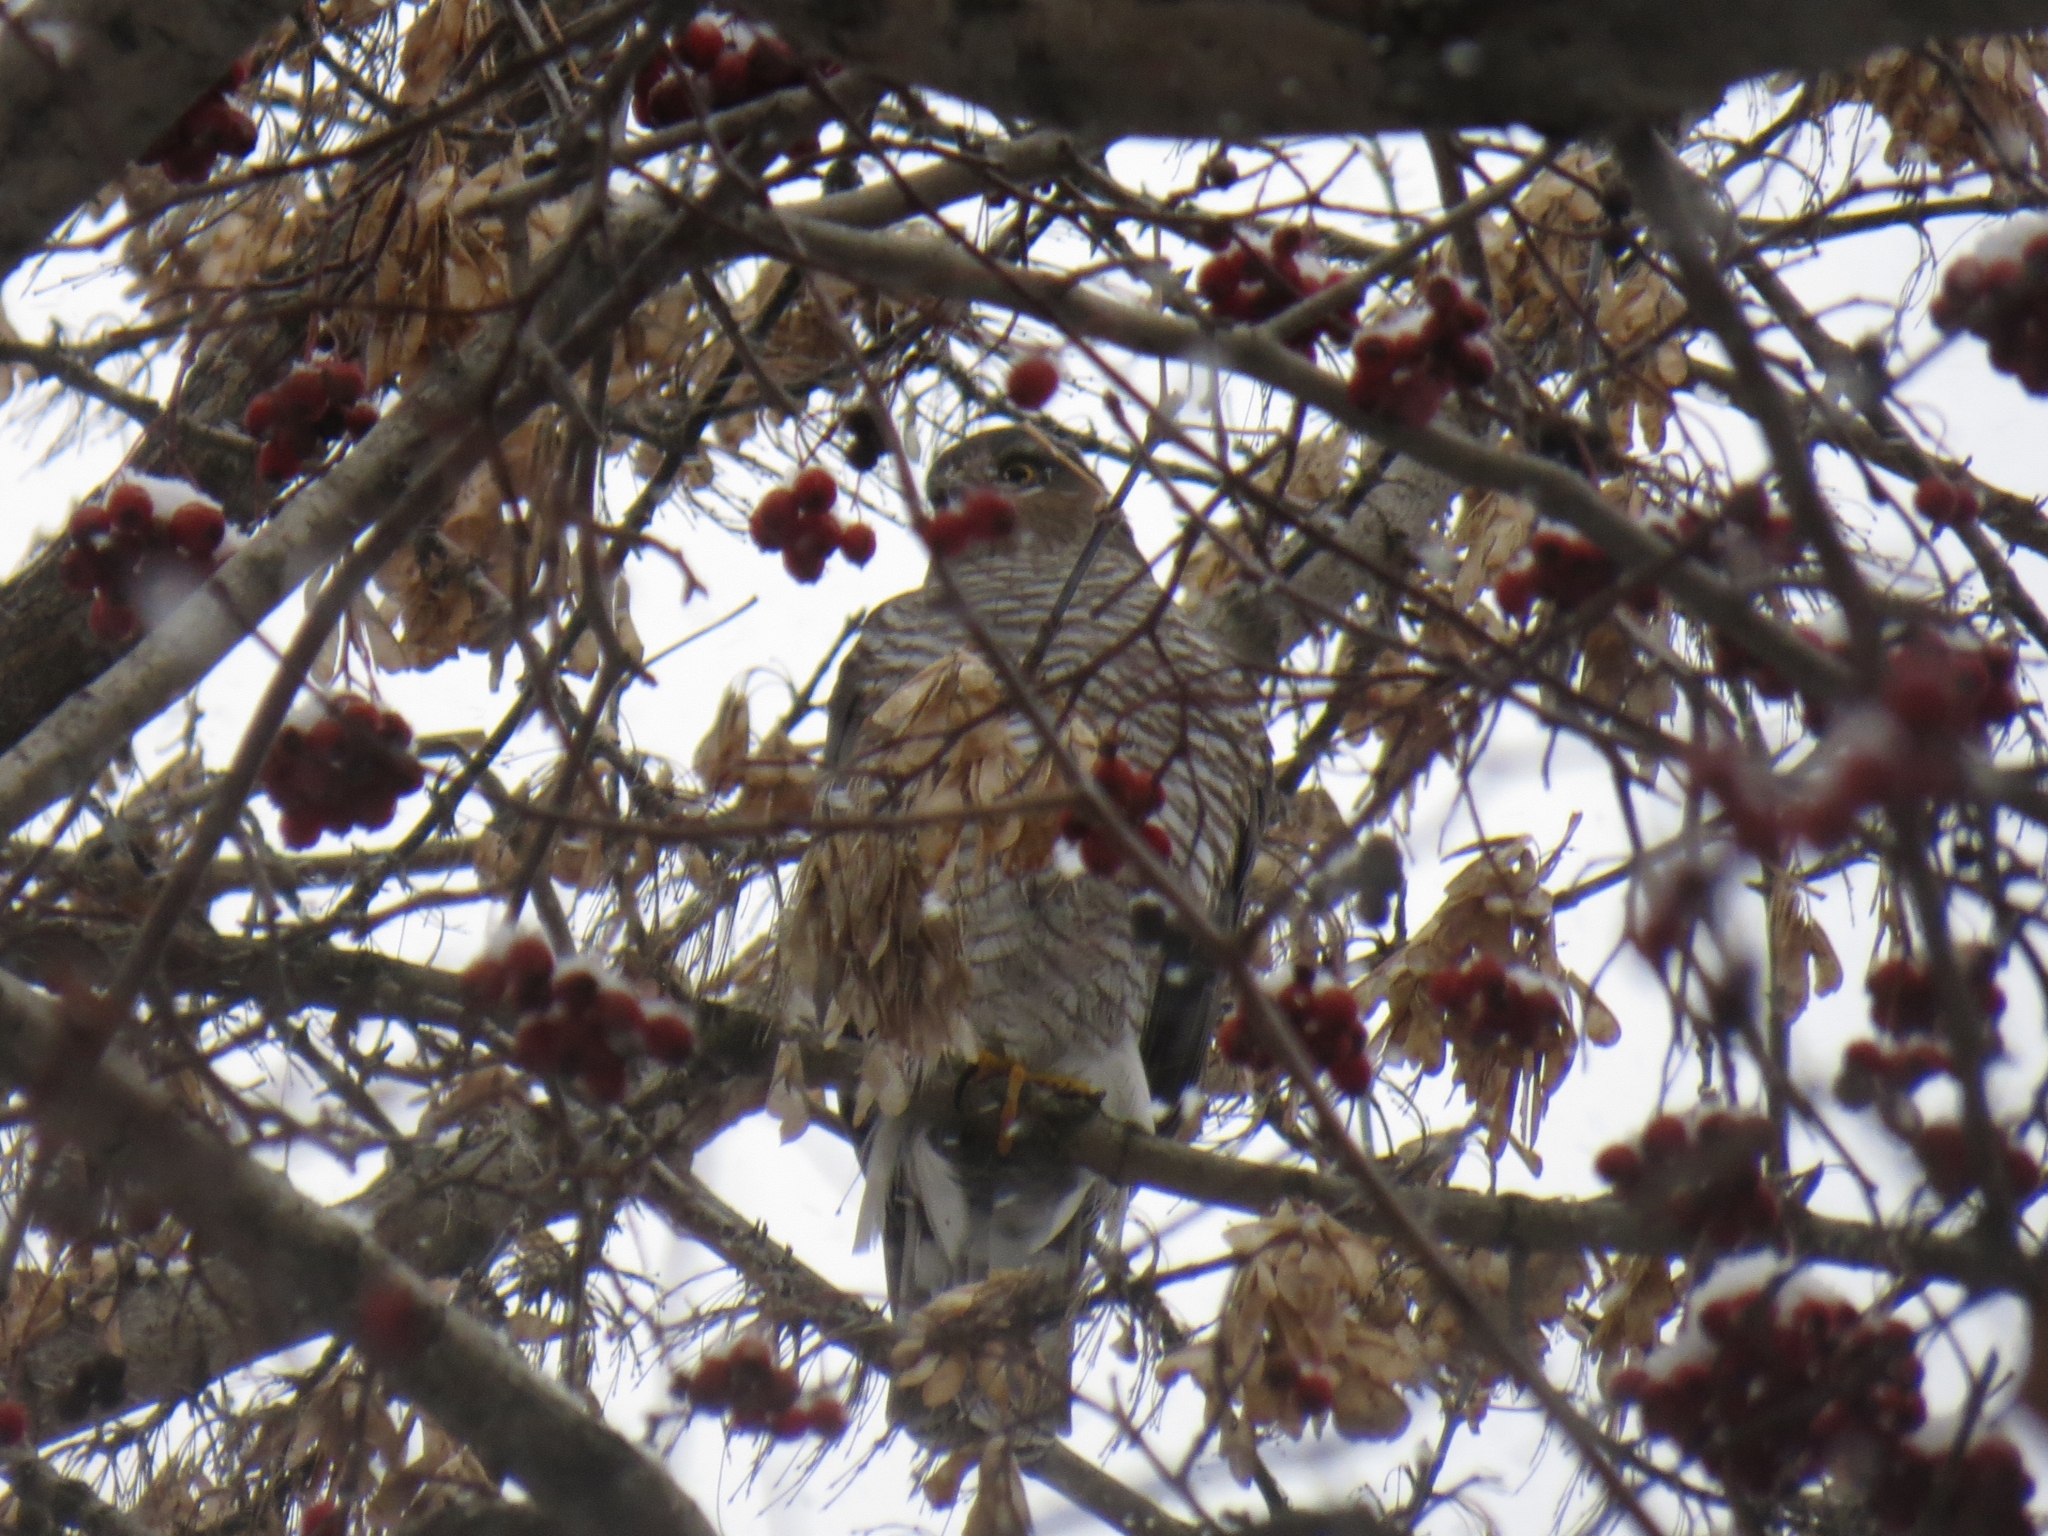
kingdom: Animalia
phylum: Chordata
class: Aves
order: Accipitriformes
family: Accipitridae
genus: Accipiter
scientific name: Accipiter nisus
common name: Eurasian sparrowhawk
